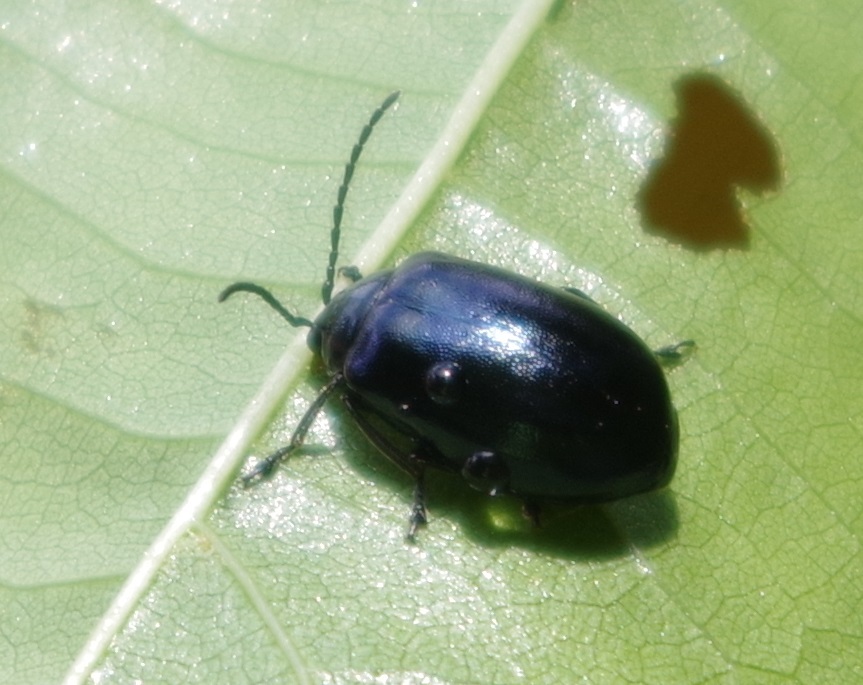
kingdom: Animalia
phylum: Arthropoda
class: Insecta
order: Coleoptera
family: Chrysomelidae
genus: Agelastica
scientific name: Agelastica alni
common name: Alder leaf beetle
